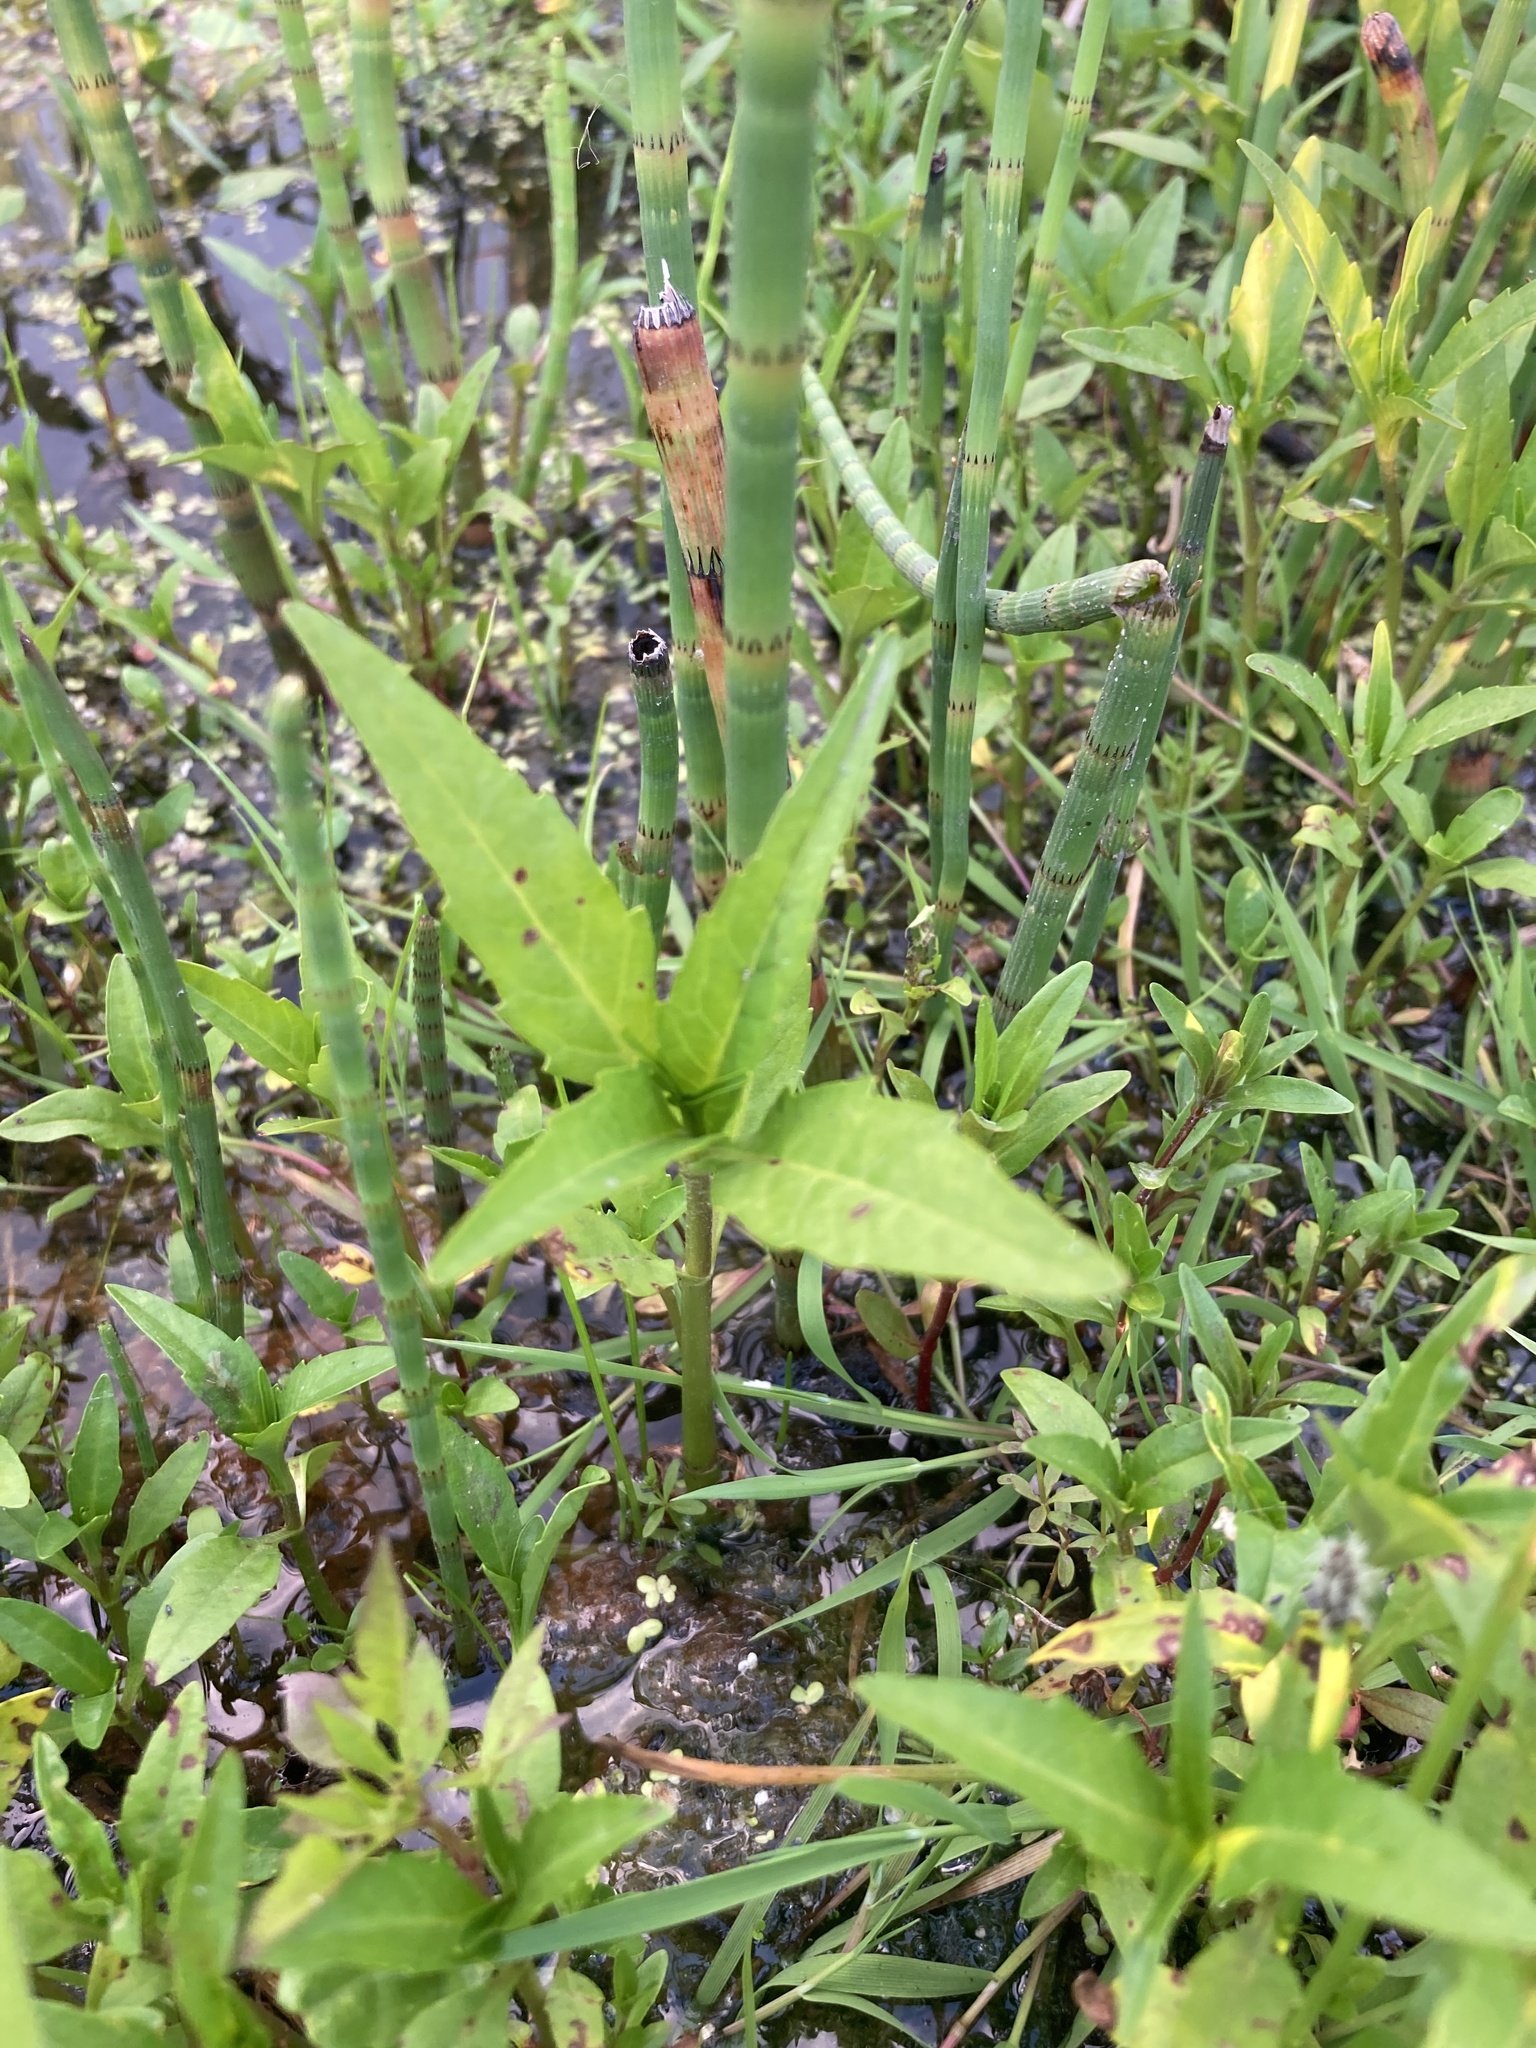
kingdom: Plantae
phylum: Tracheophyta
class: Magnoliopsida
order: Asterales
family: Asteraceae
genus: Bidens
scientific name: Bidens cernua
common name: Nodding bur-marigold
